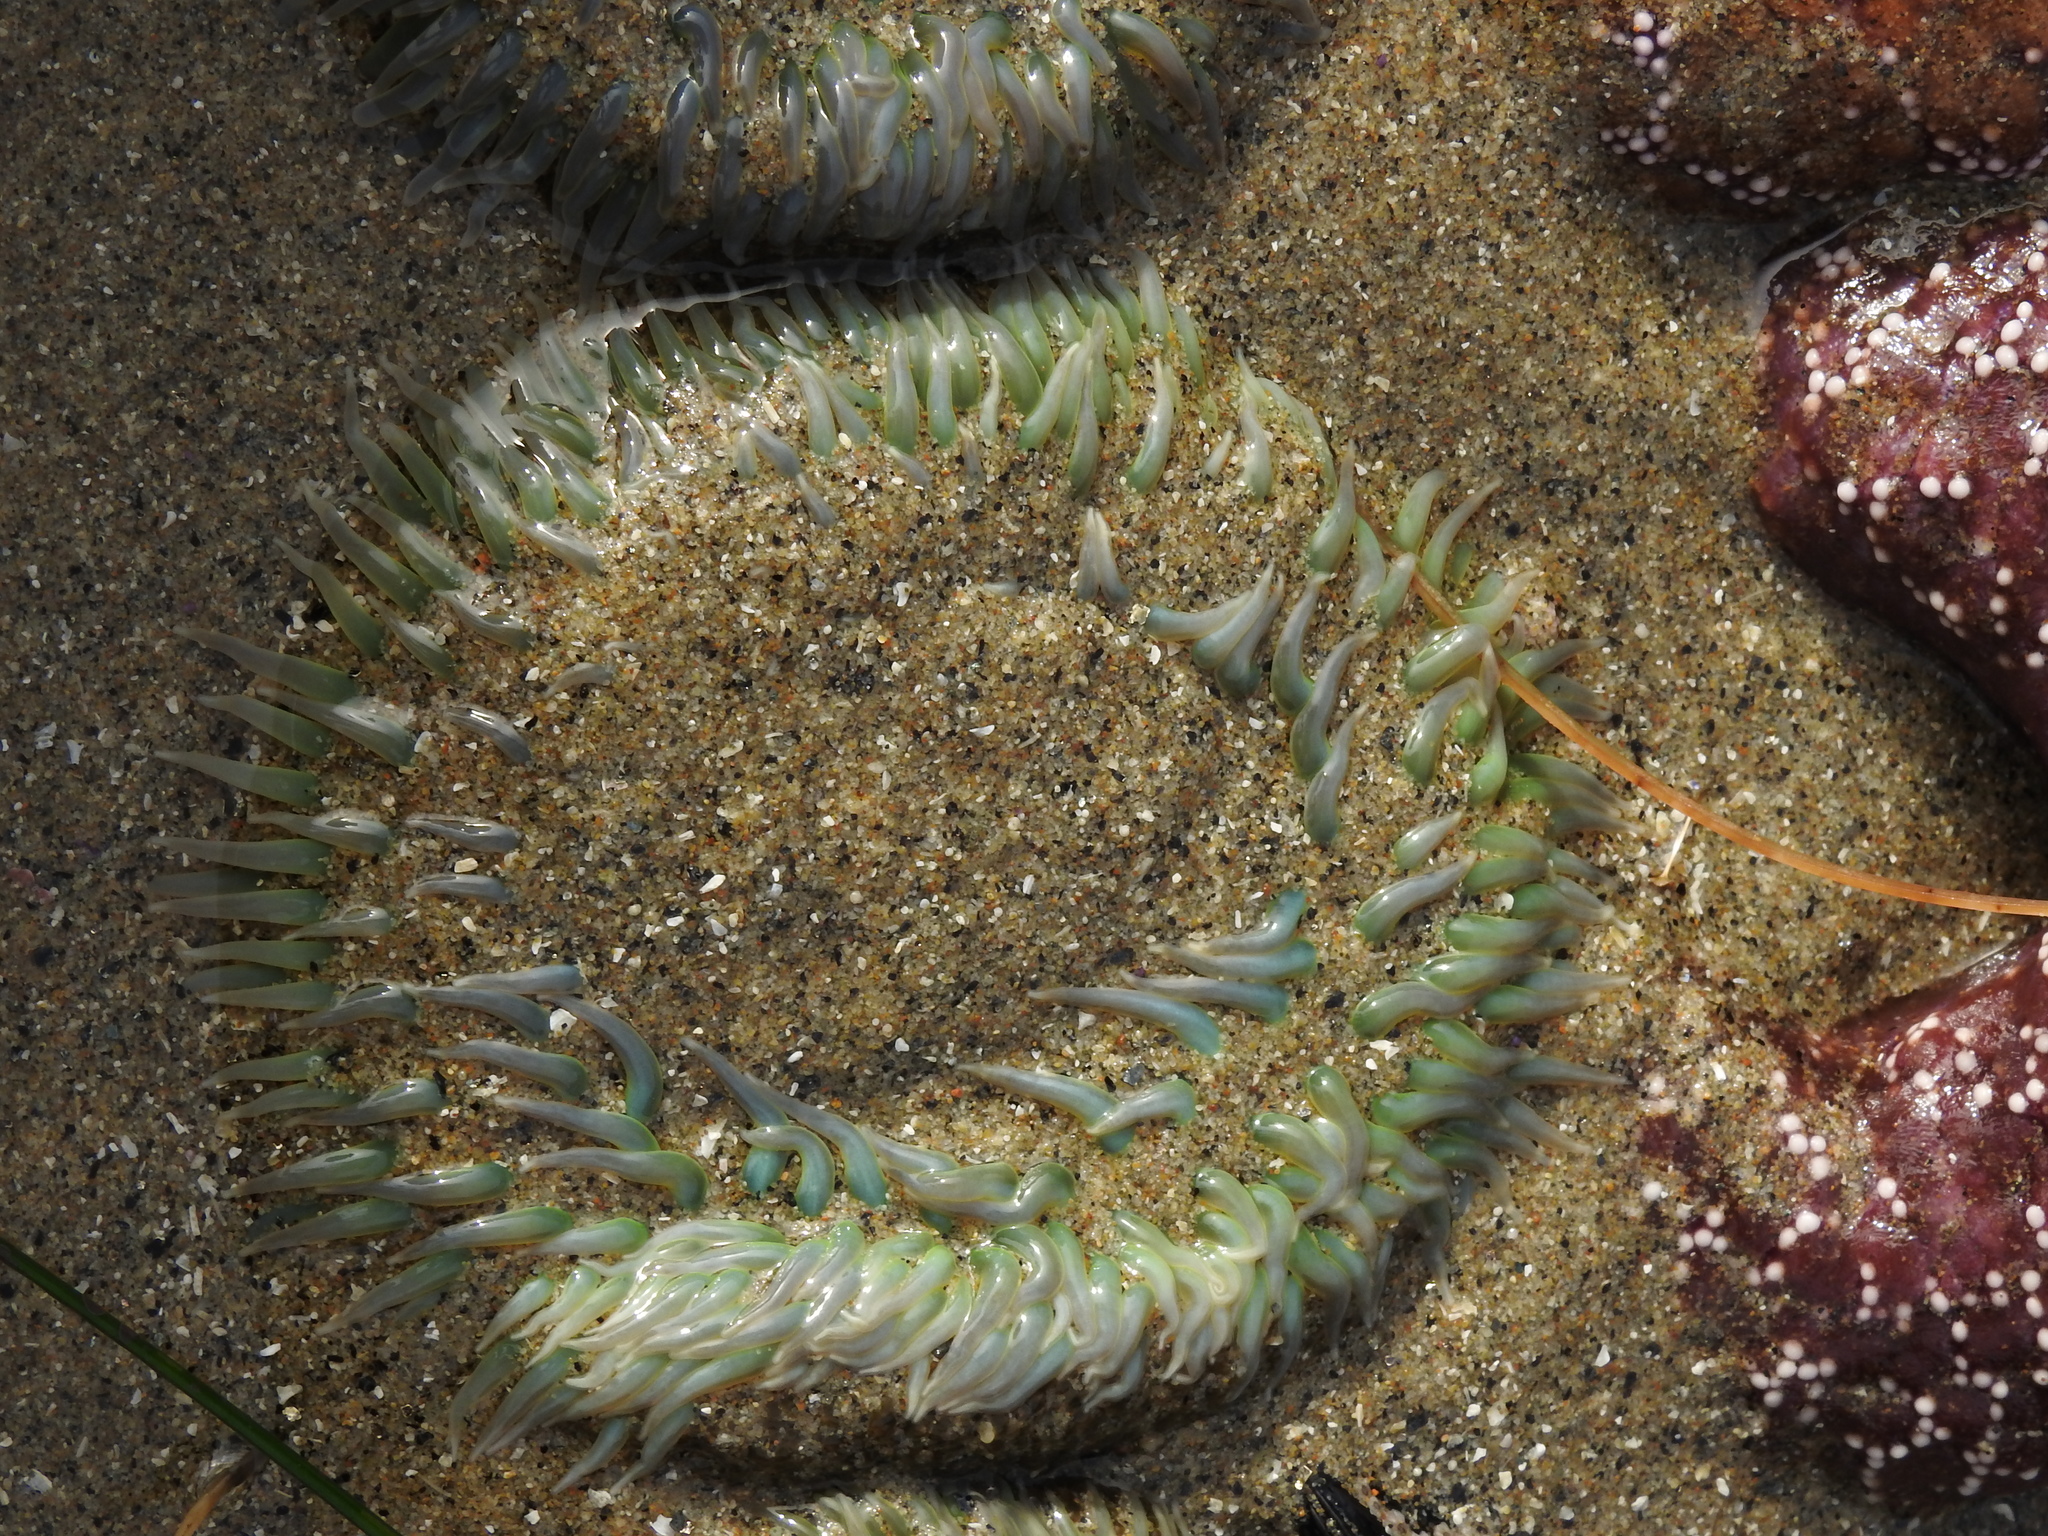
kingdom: Animalia
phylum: Cnidaria
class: Anthozoa
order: Actiniaria
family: Actiniidae
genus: Anthopleura
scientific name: Anthopleura xanthogrammica
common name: Giant green anemone
